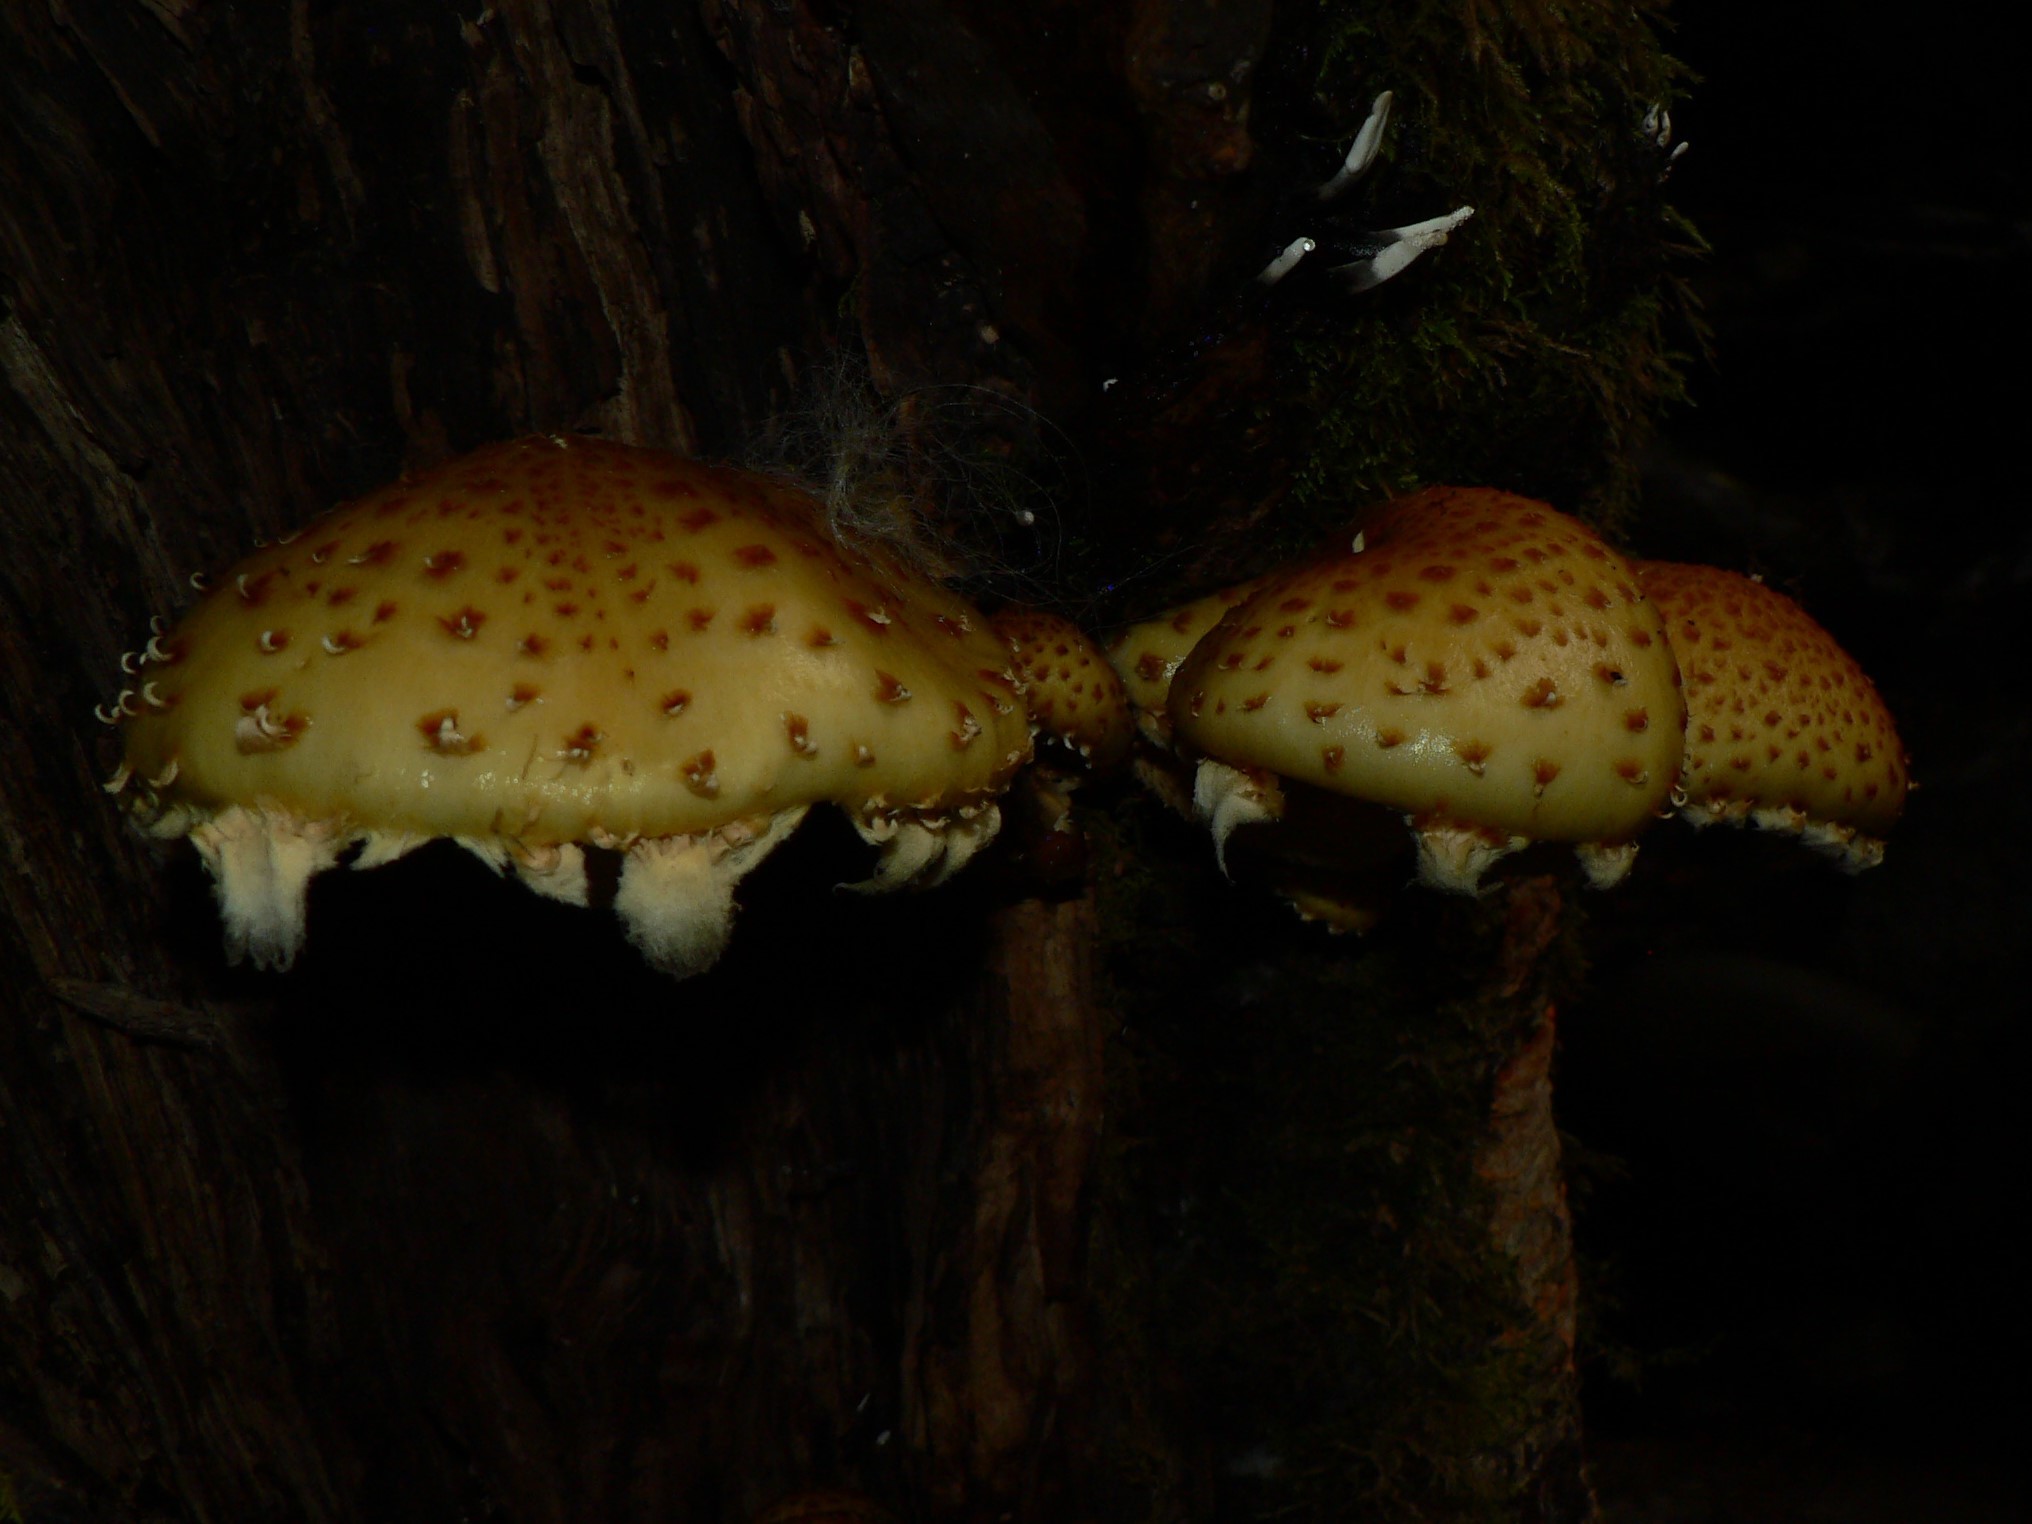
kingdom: Fungi
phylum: Basidiomycota
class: Agaricomycetes
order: Agaricales
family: Strophariaceae
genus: Pholiota
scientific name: Pholiota aurivella
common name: Golden scalycap
